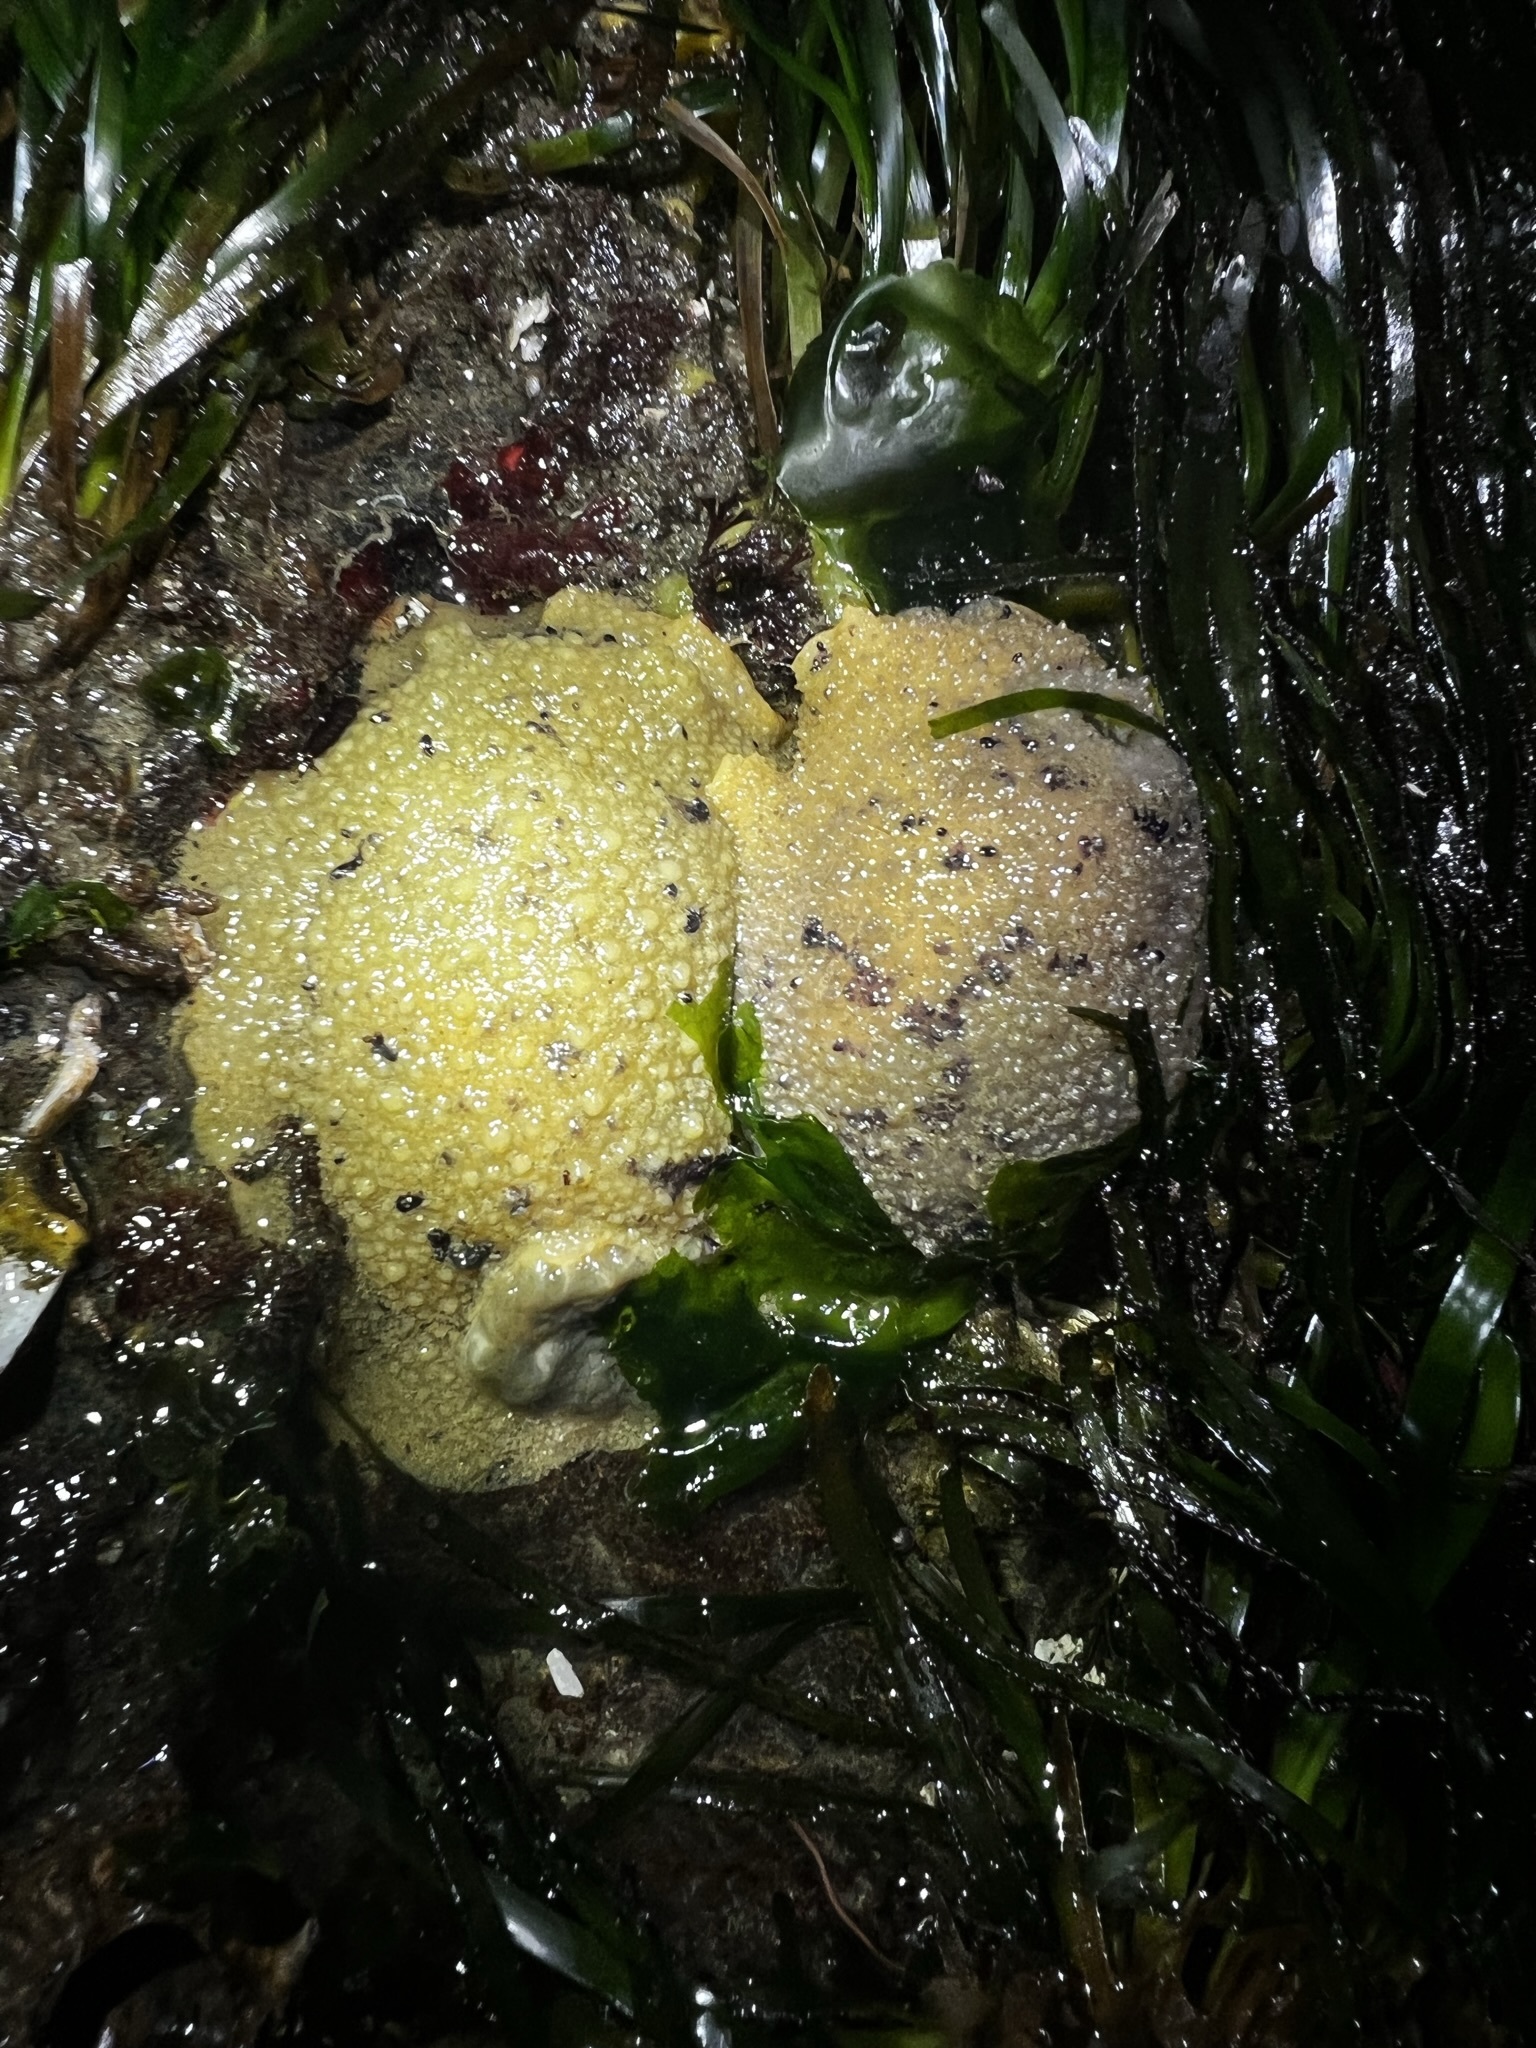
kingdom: Animalia
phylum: Mollusca
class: Gastropoda
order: Nudibranchia
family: Dorididae
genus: Doris
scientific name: Doris montereyensis
